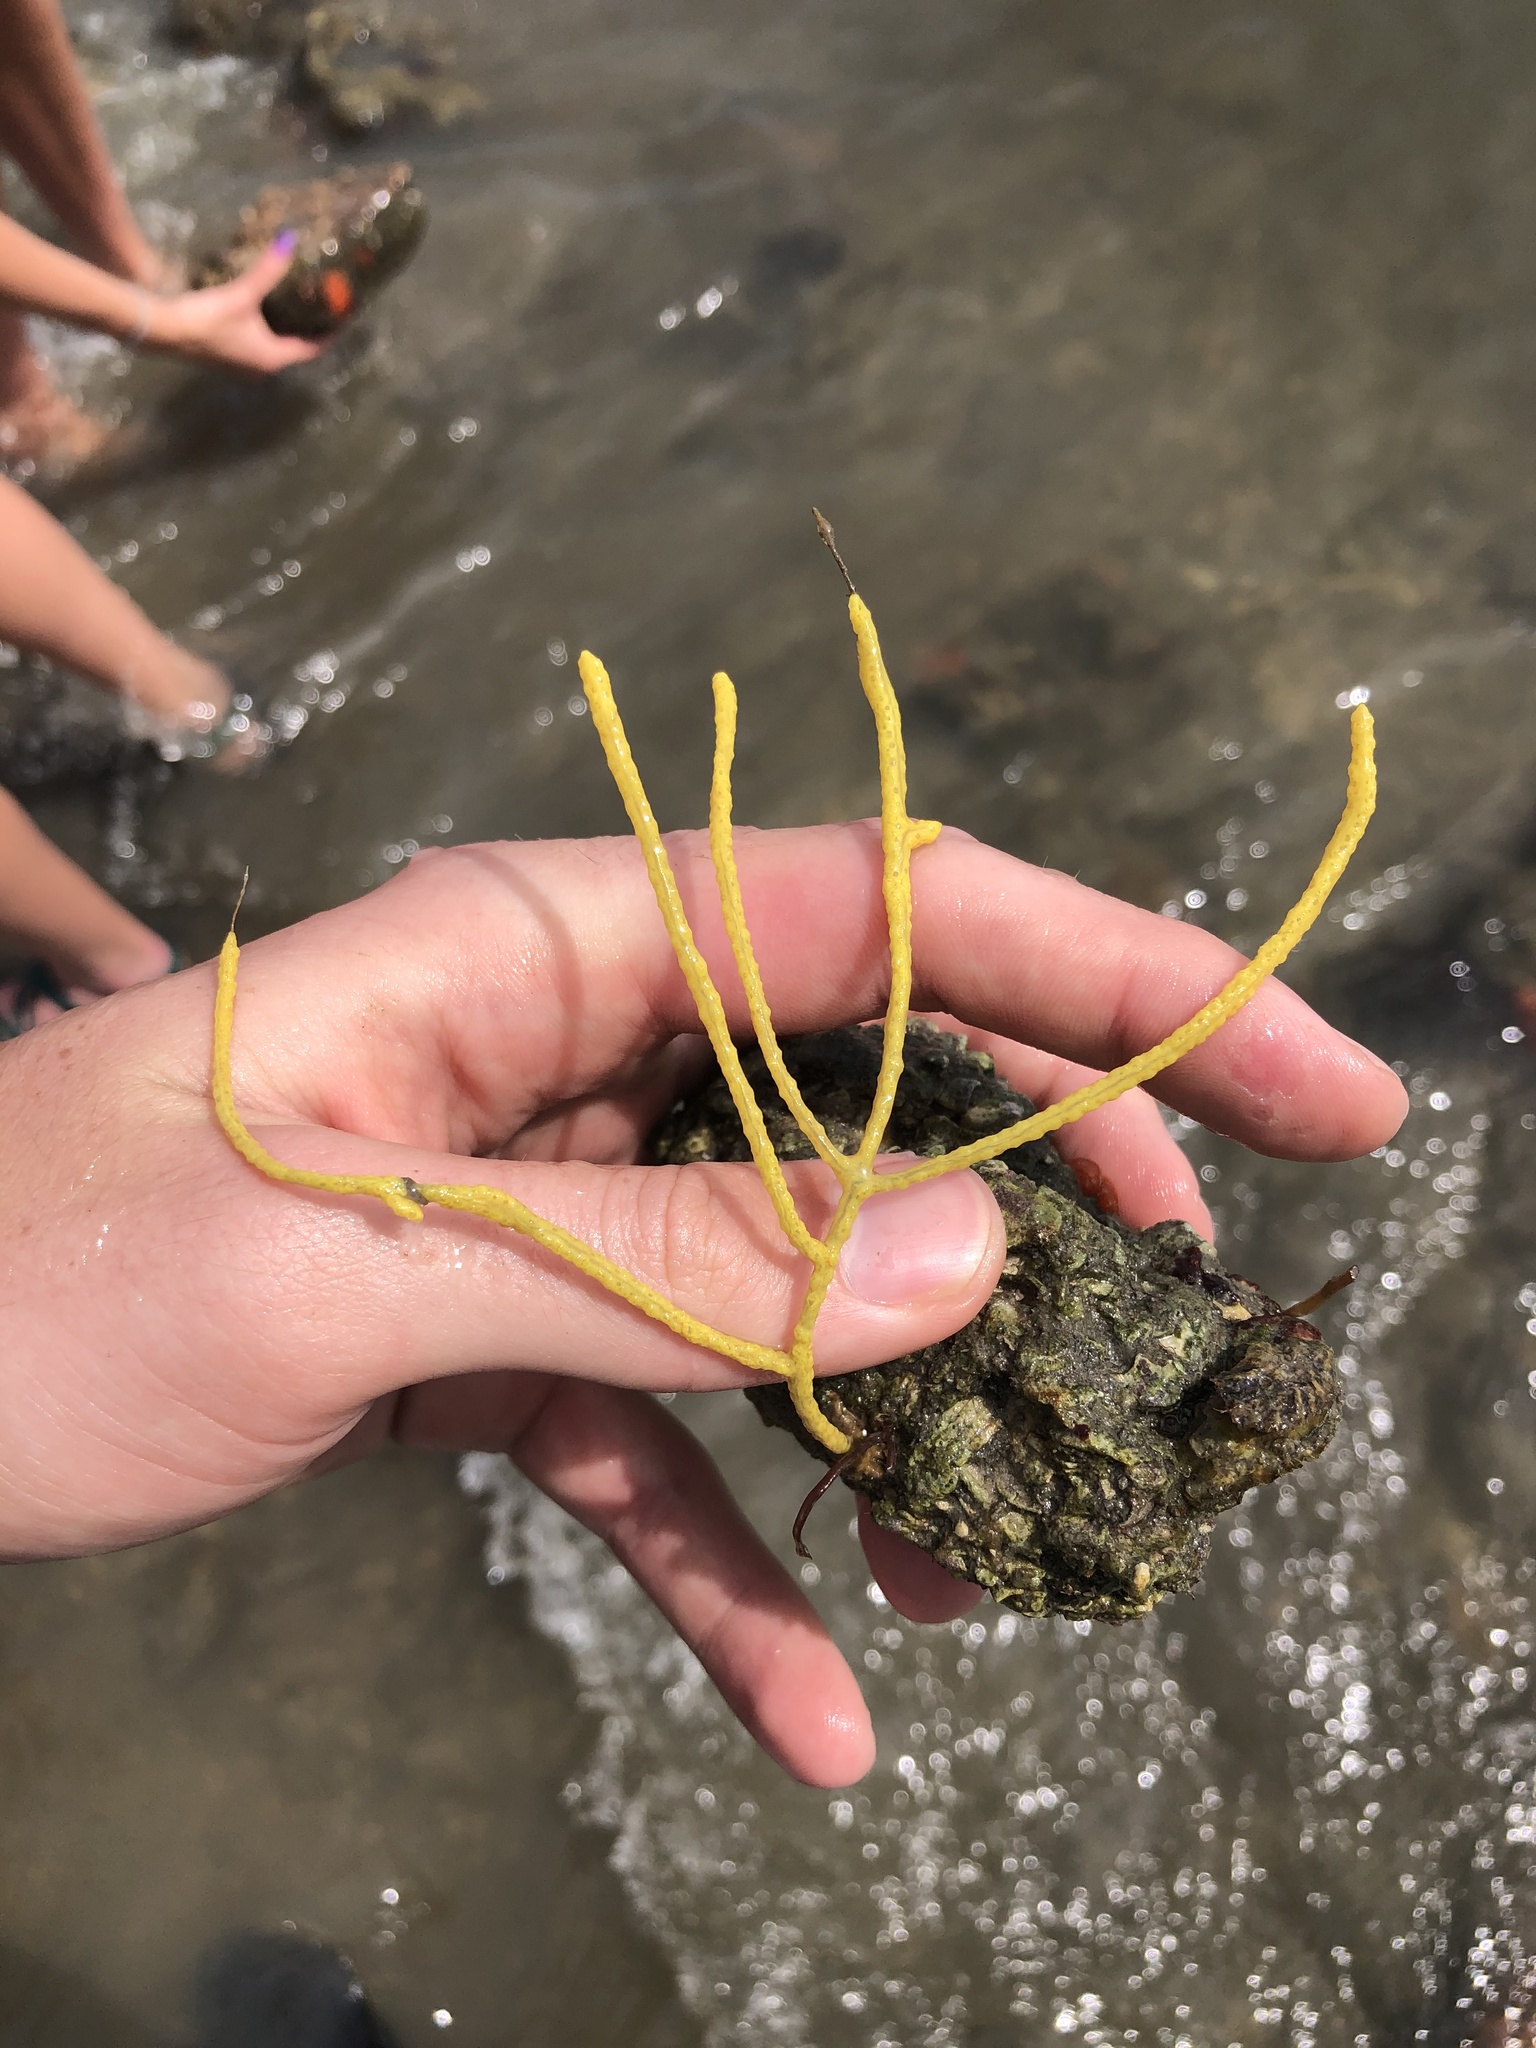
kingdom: Animalia
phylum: Cnidaria
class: Anthozoa
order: Malacalcyonacea
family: Gorgoniidae
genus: Leptogorgia
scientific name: Leptogorgia virgulata
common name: Colorful sea whip
